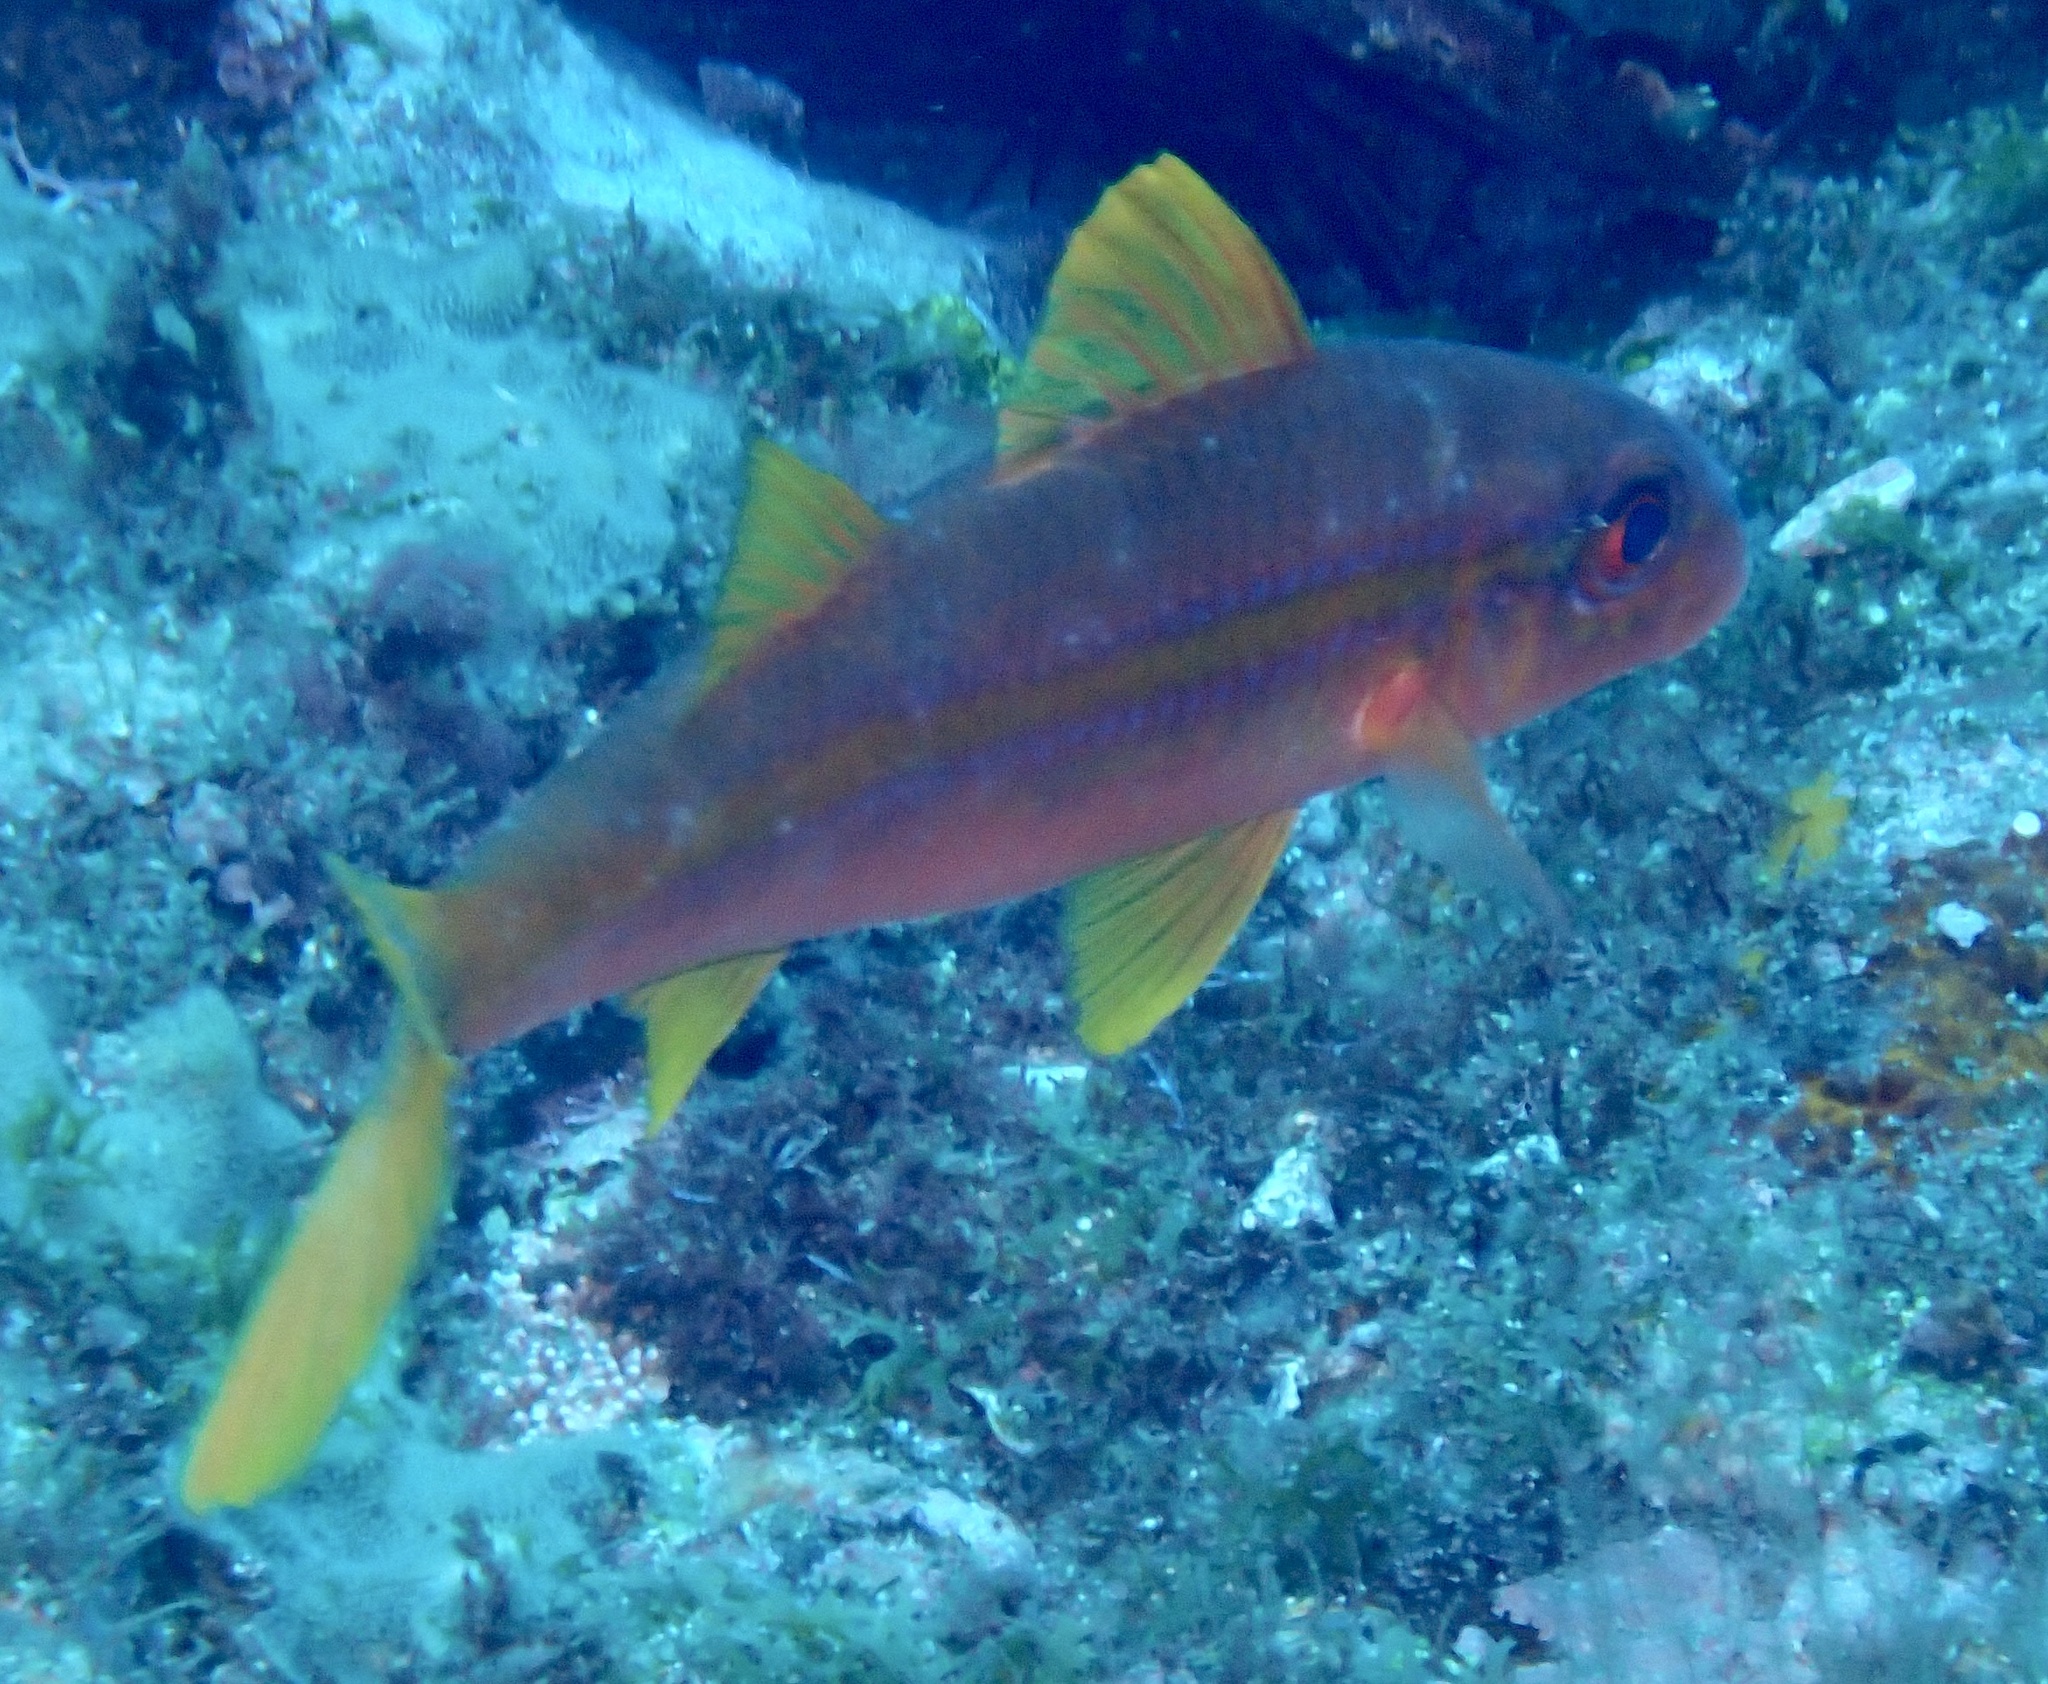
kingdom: Animalia
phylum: Chordata
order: Perciformes
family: Mullidae
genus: Mulloidichthys
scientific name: Mulloidichthys martinicus
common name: Yellow goatfish
